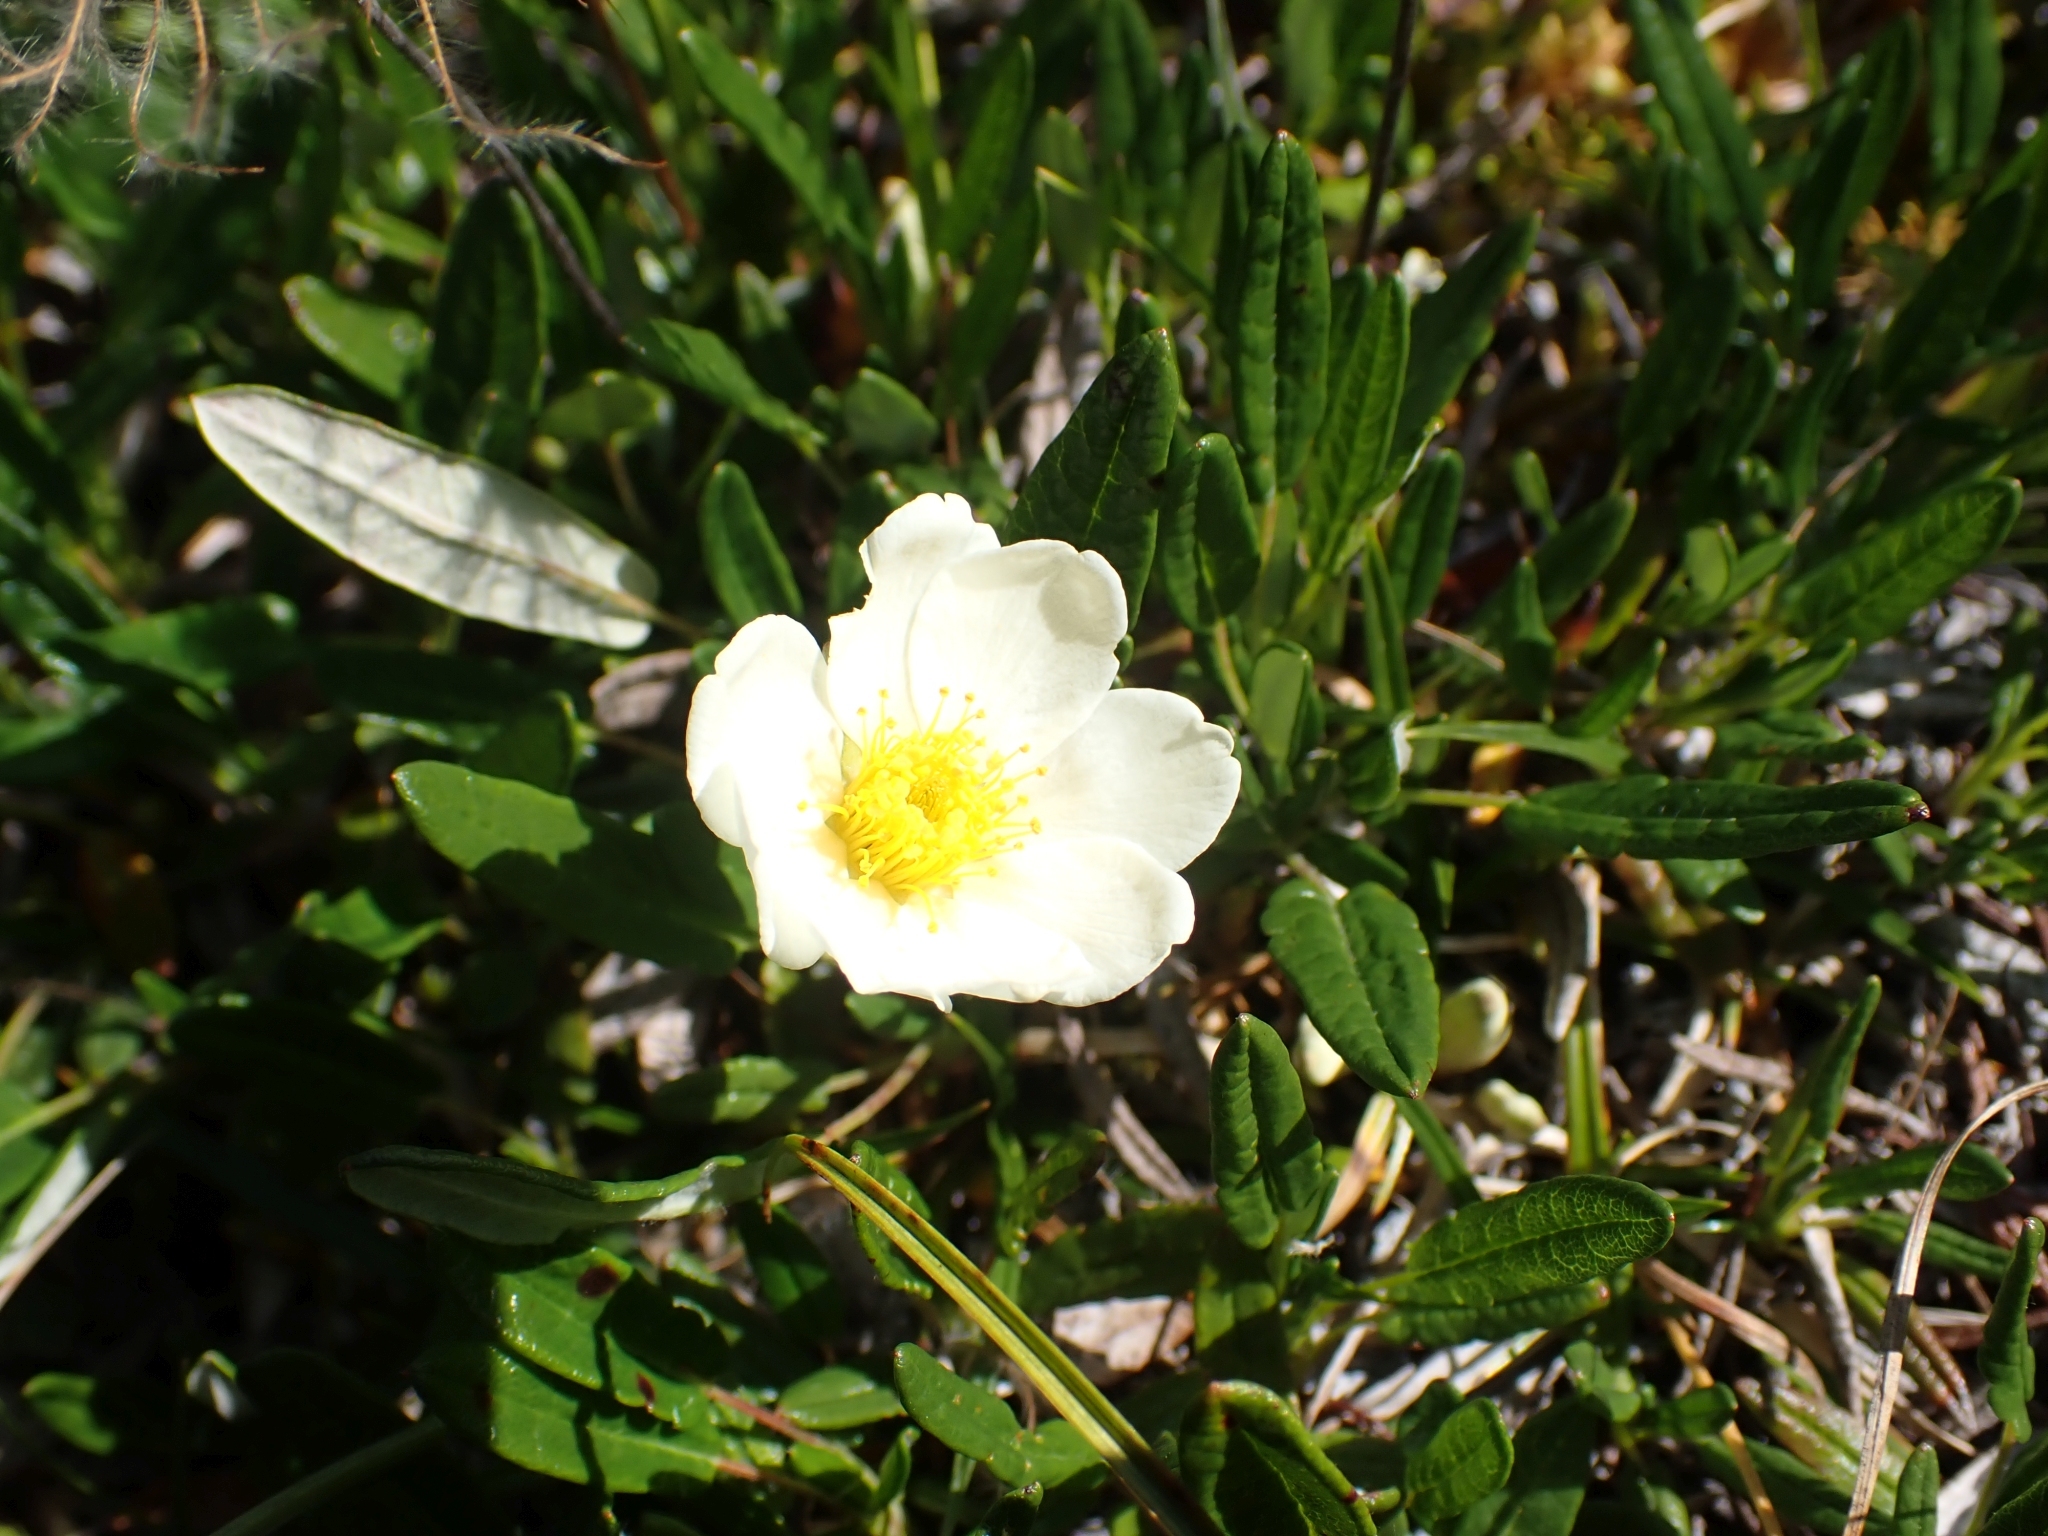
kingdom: Plantae
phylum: Tracheophyta
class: Magnoliopsida
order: Rosales
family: Rosaceae
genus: Dryas
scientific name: Dryas integrifolia
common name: Entire-leaved mountain avens
